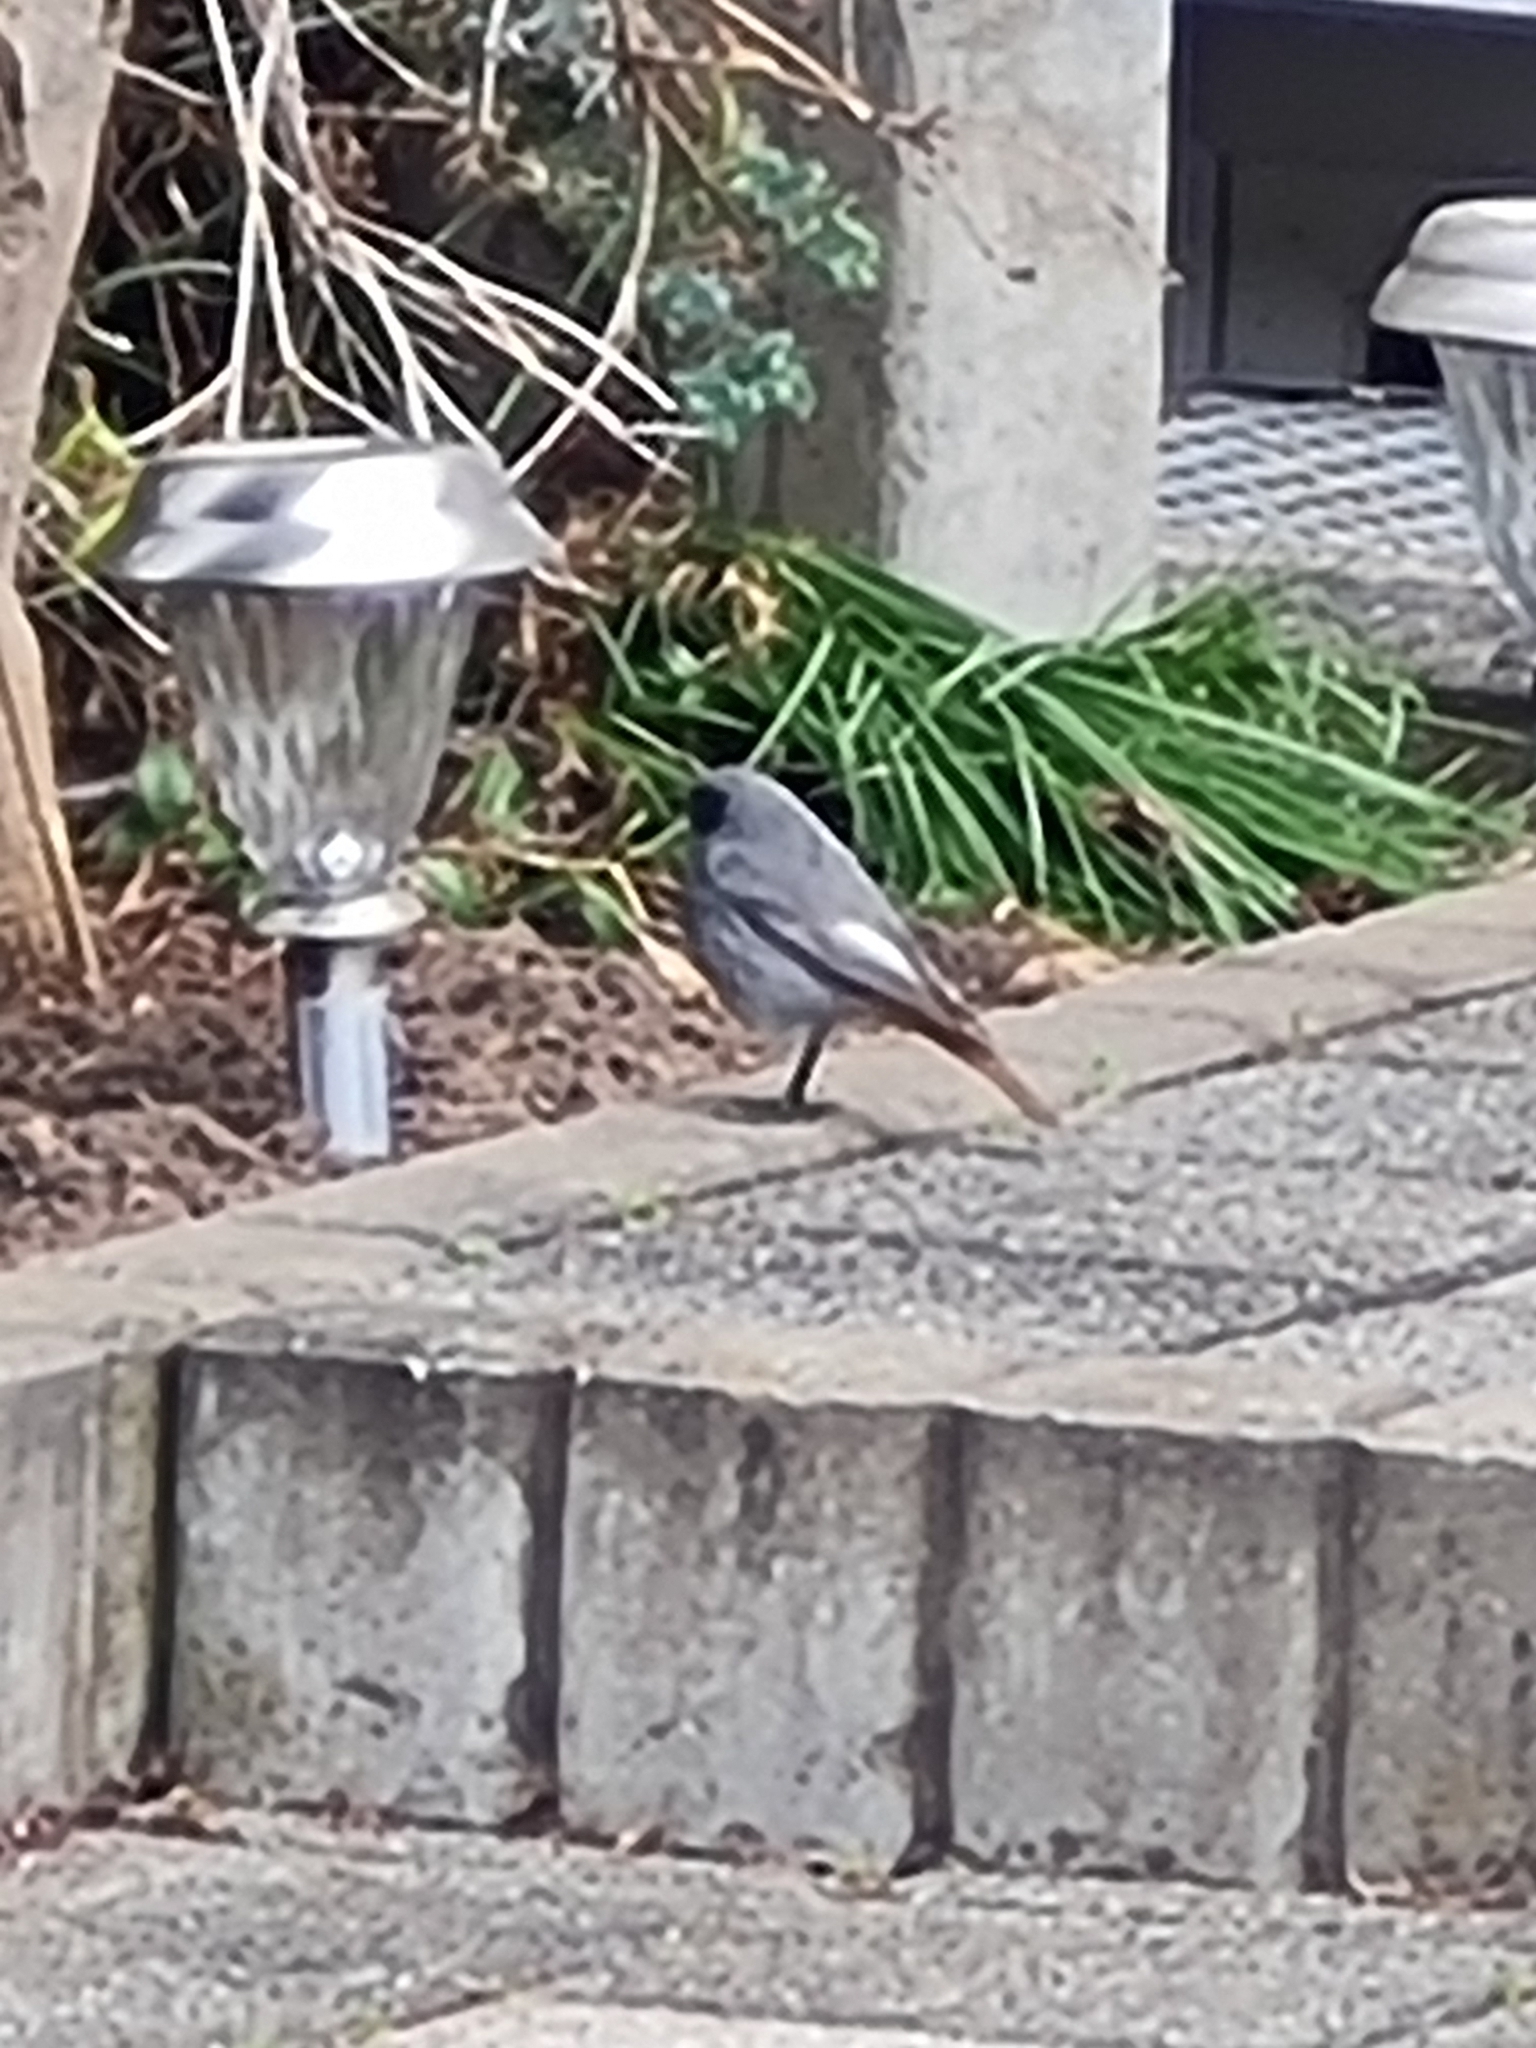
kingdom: Animalia
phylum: Chordata
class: Aves
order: Passeriformes
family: Muscicapidae
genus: Phoenicurus
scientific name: Phoenicurus ochruros
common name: Black redstart
